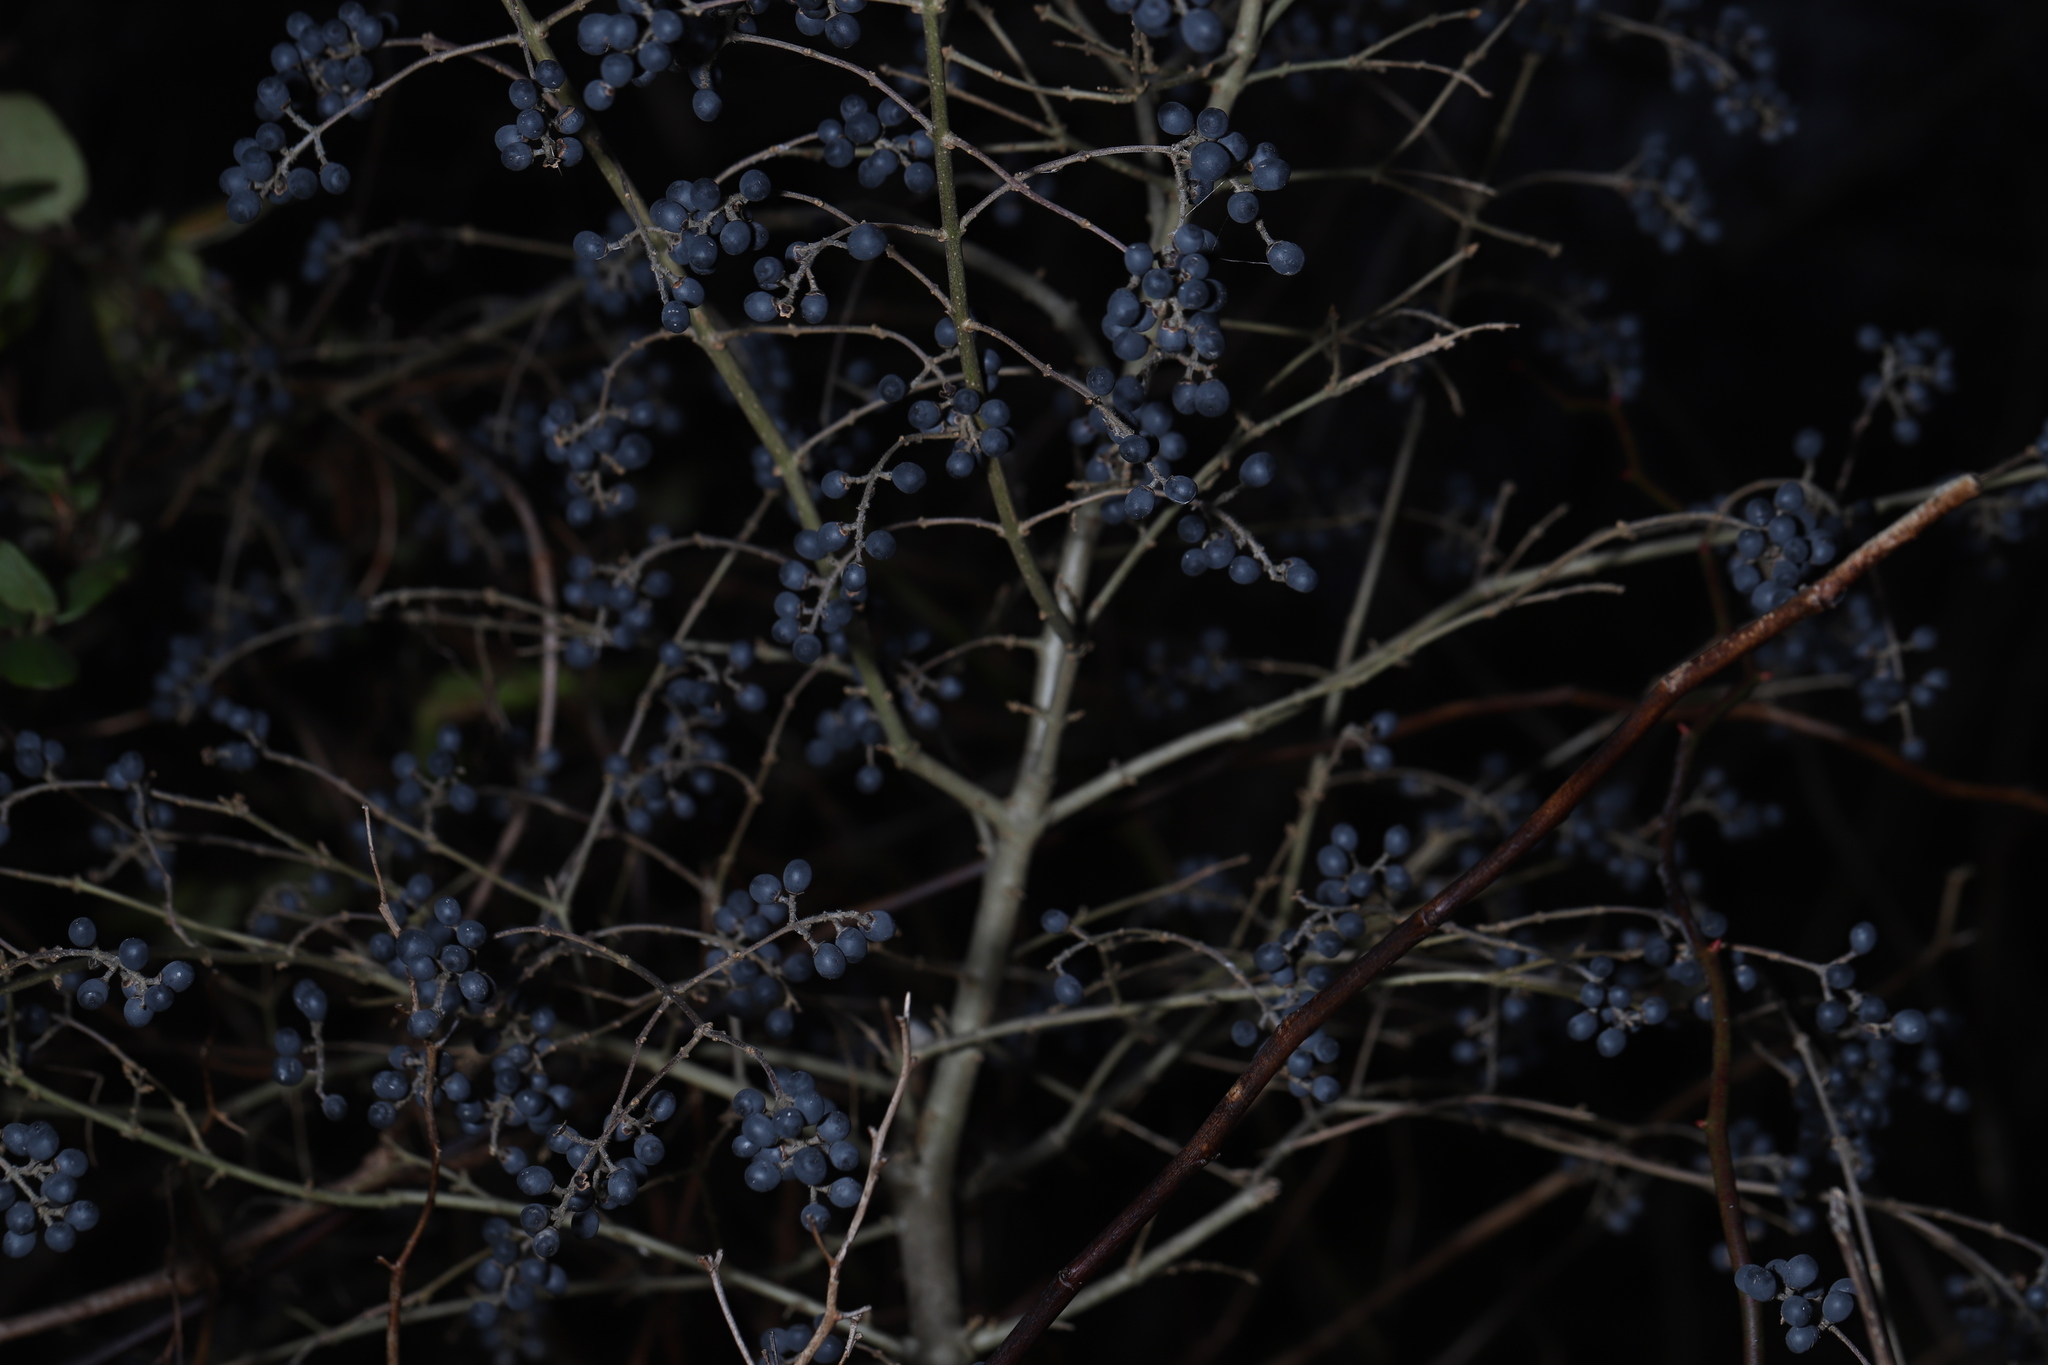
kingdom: Plantae
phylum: Tracheophyta
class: Magnoliopsida
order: Lamiales
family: Oleaceae
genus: Ligustrum
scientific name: Ligustrum obtusifolium
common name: Border privet
